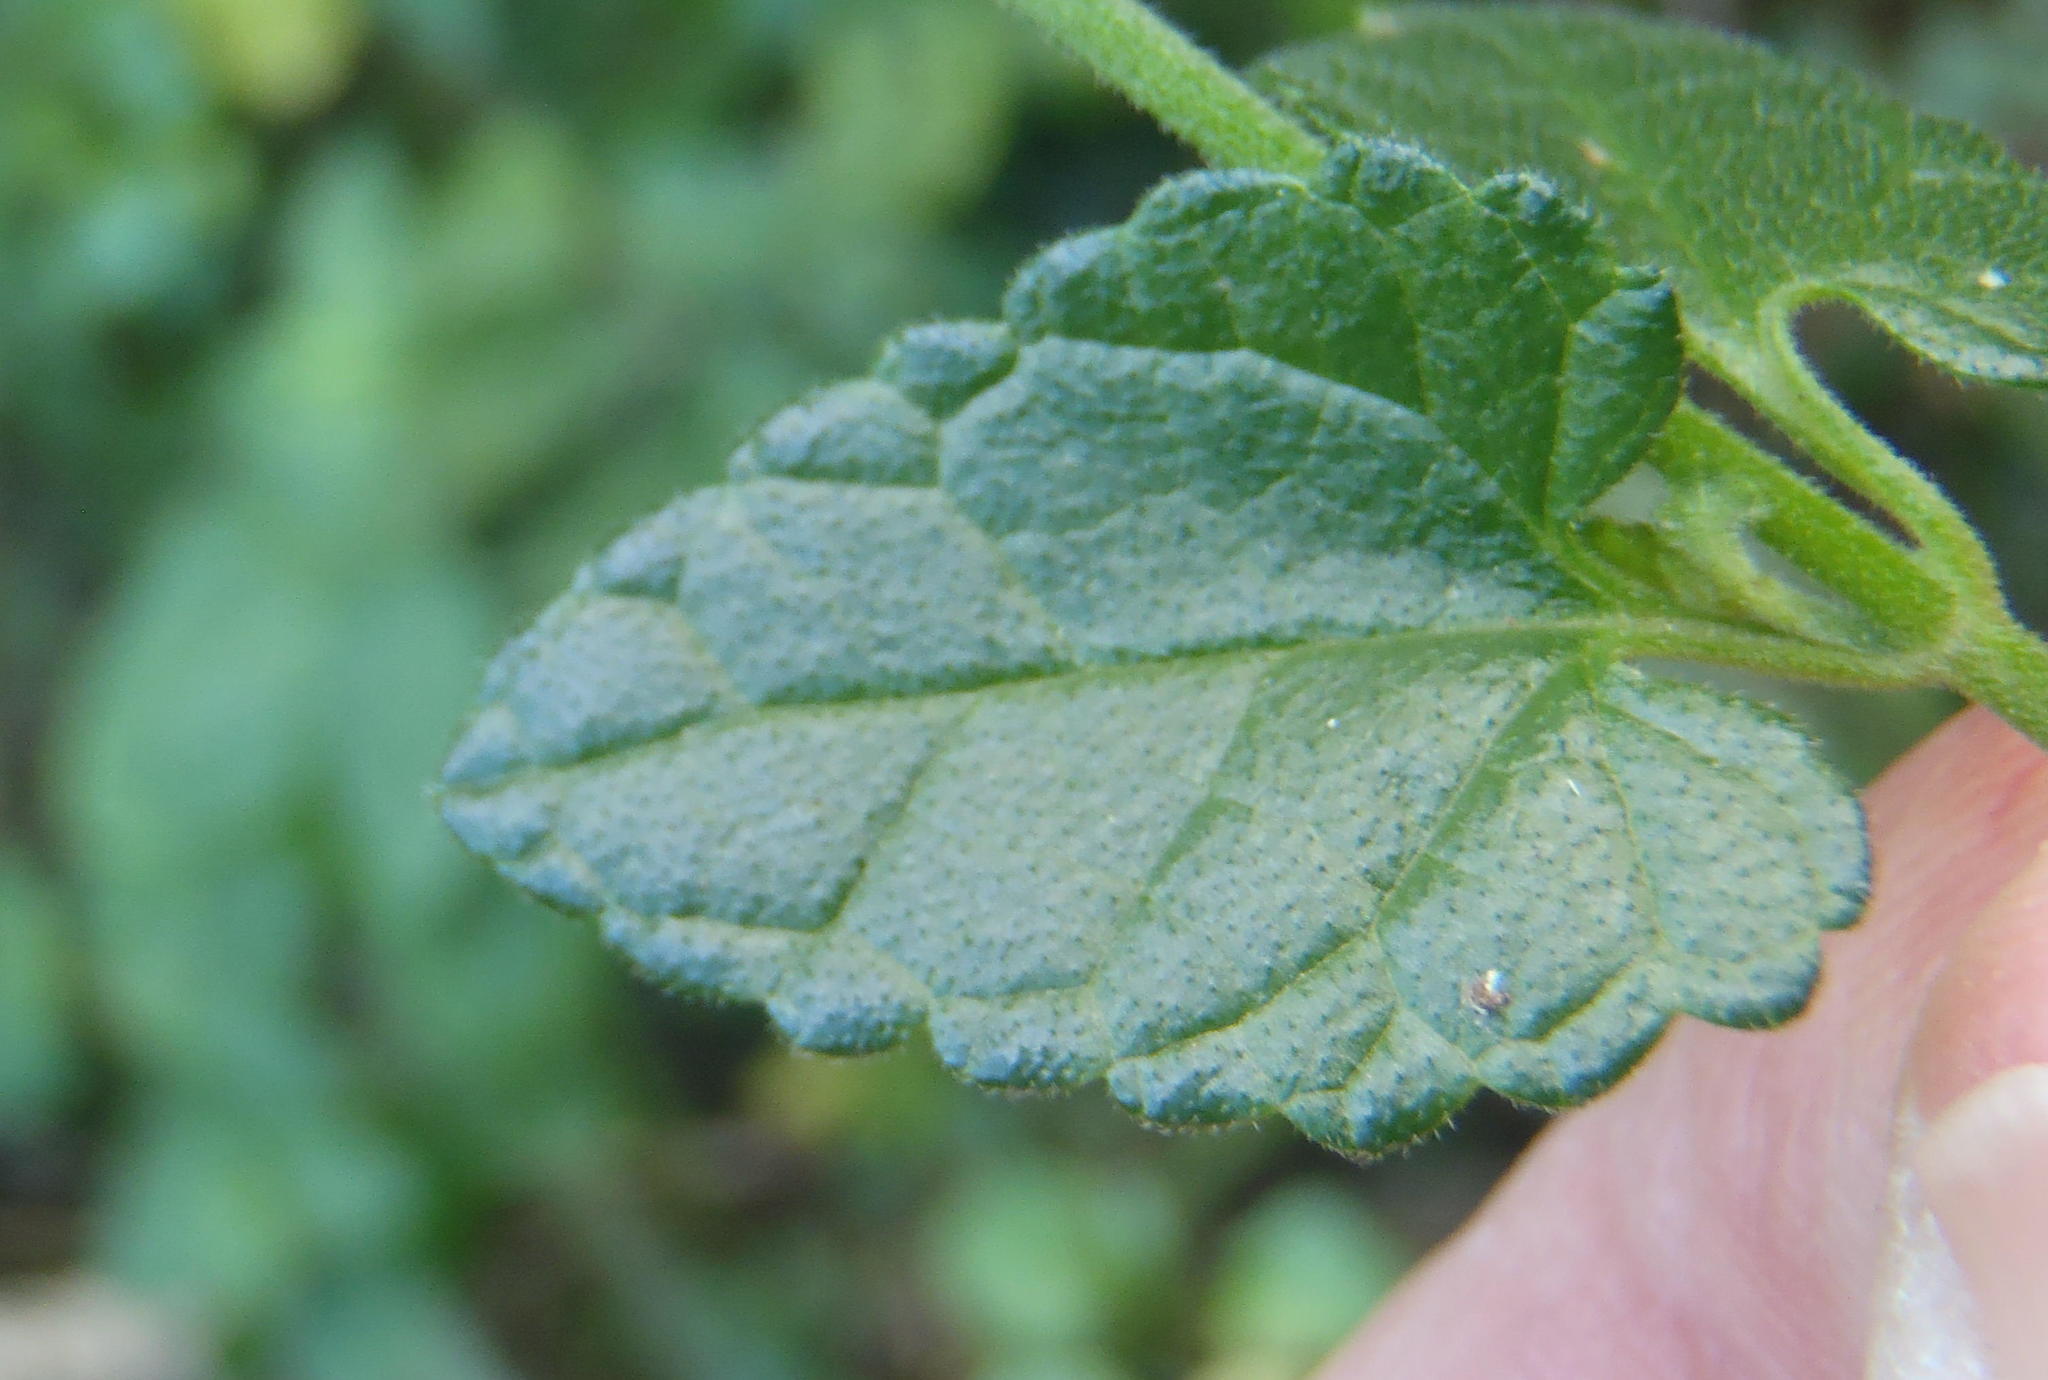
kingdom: Plantae
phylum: Tracheophyta
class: Magnoliopsida
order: Lamiales
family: Lamiaceae
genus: Stachys
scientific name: Stachys aethiopica
